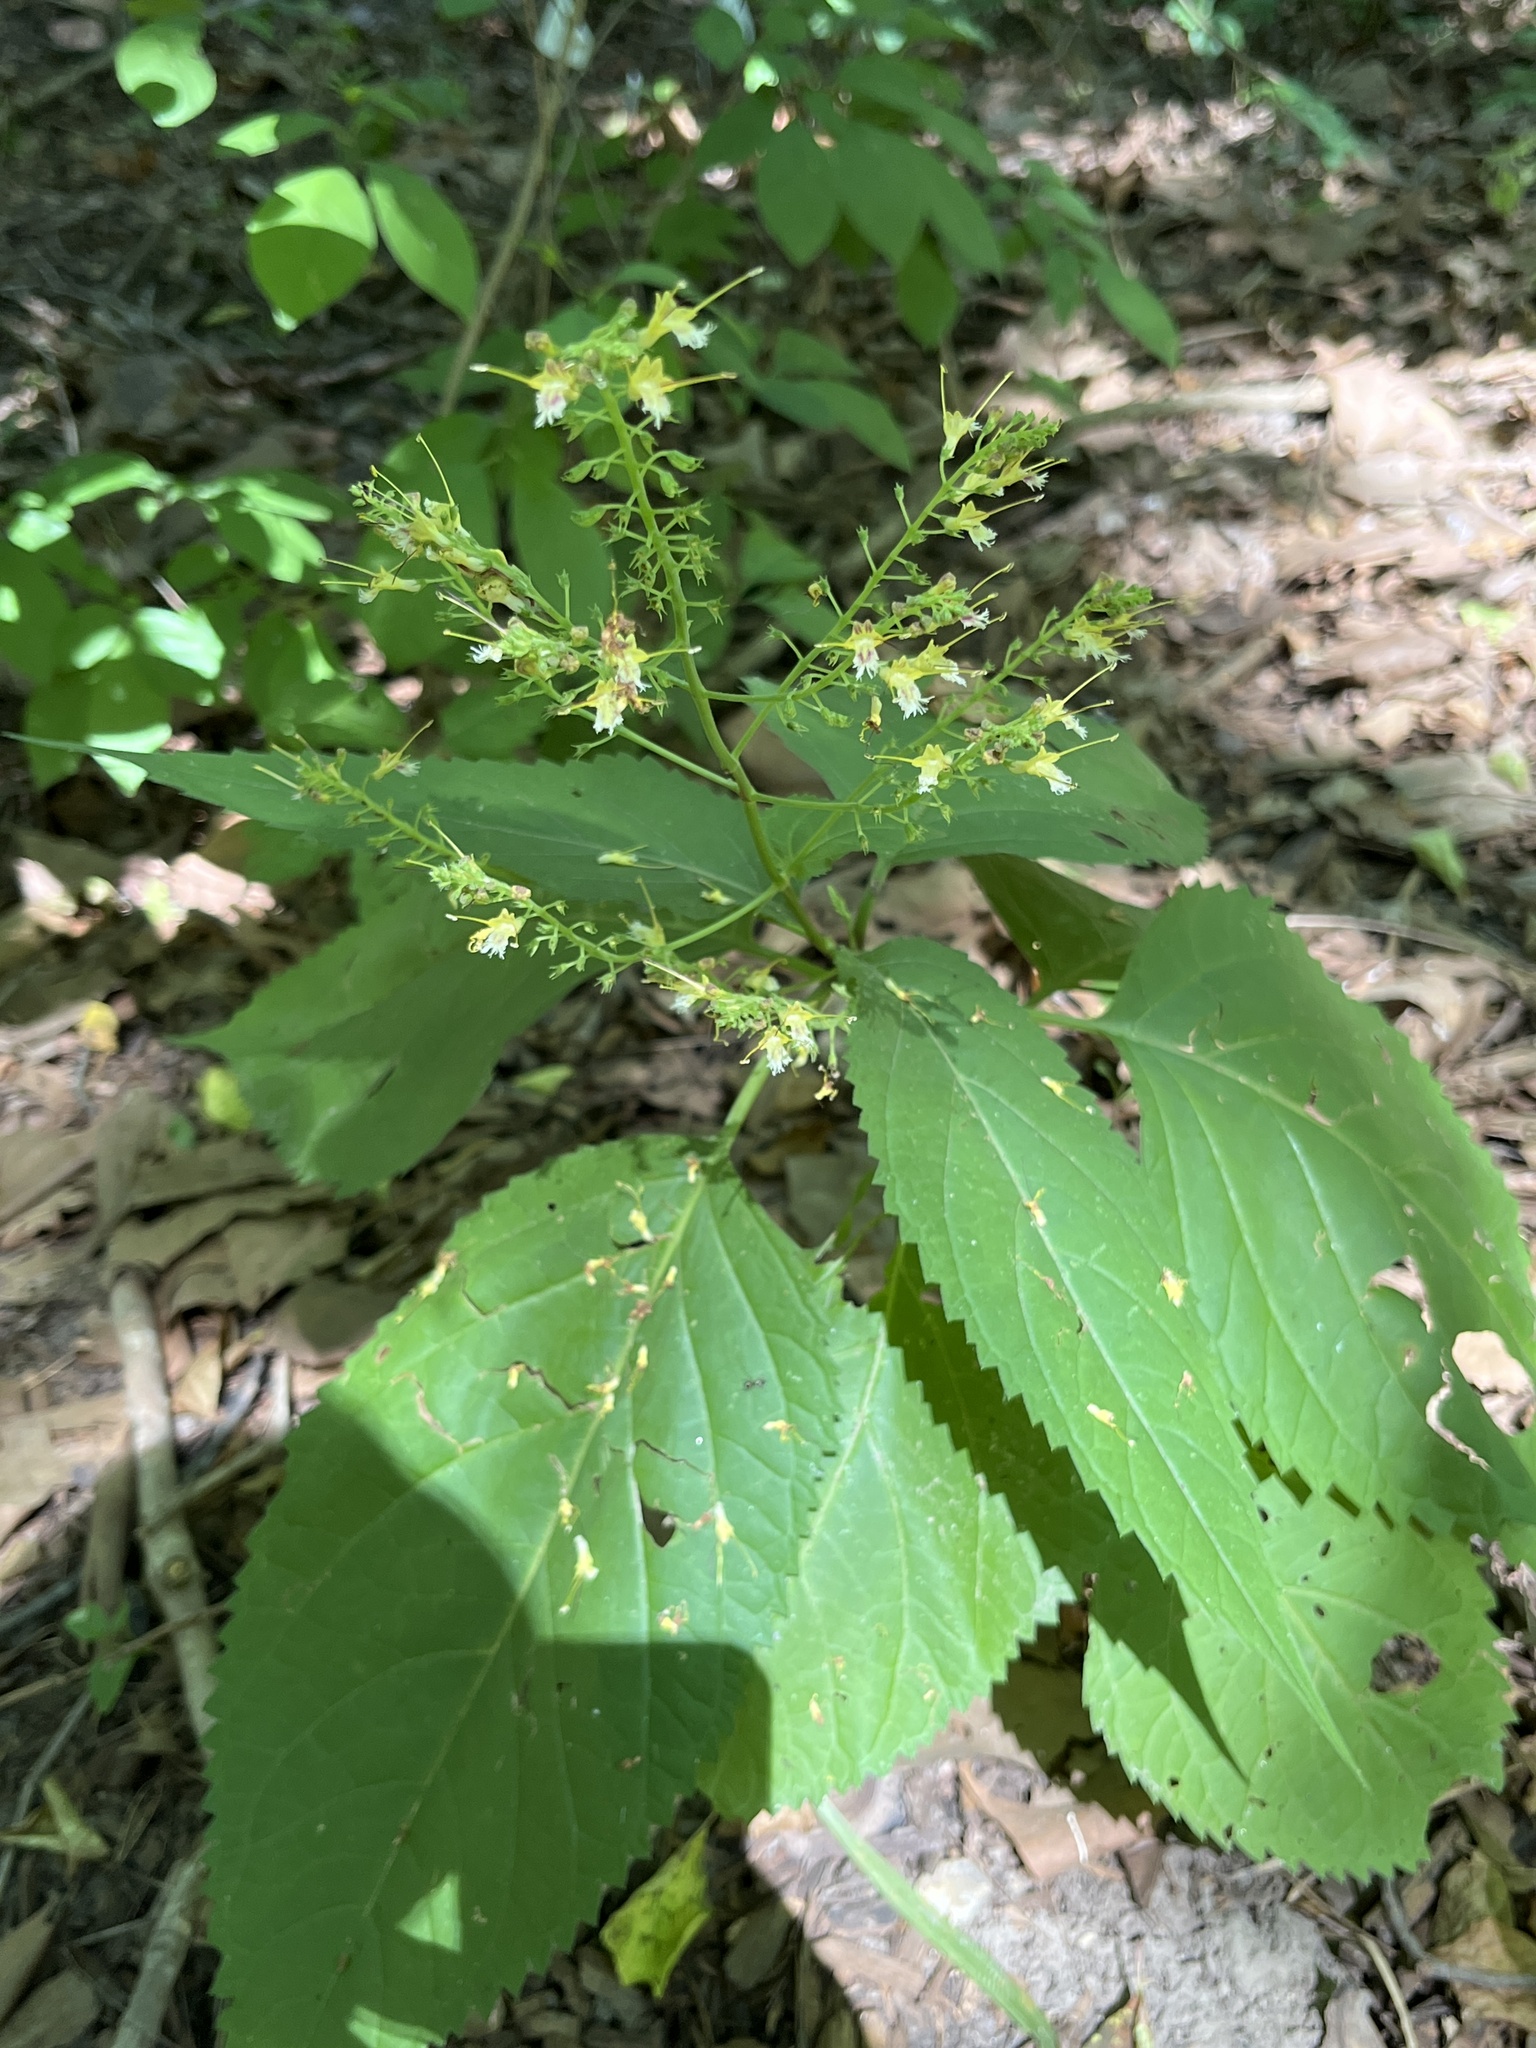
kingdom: Plantae
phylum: Tracheophyta
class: Magnoliopsida
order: Lamiales
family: Lamiaceae
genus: Collinsonia
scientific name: Collinsonia canadensis
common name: Northern horsebalm
